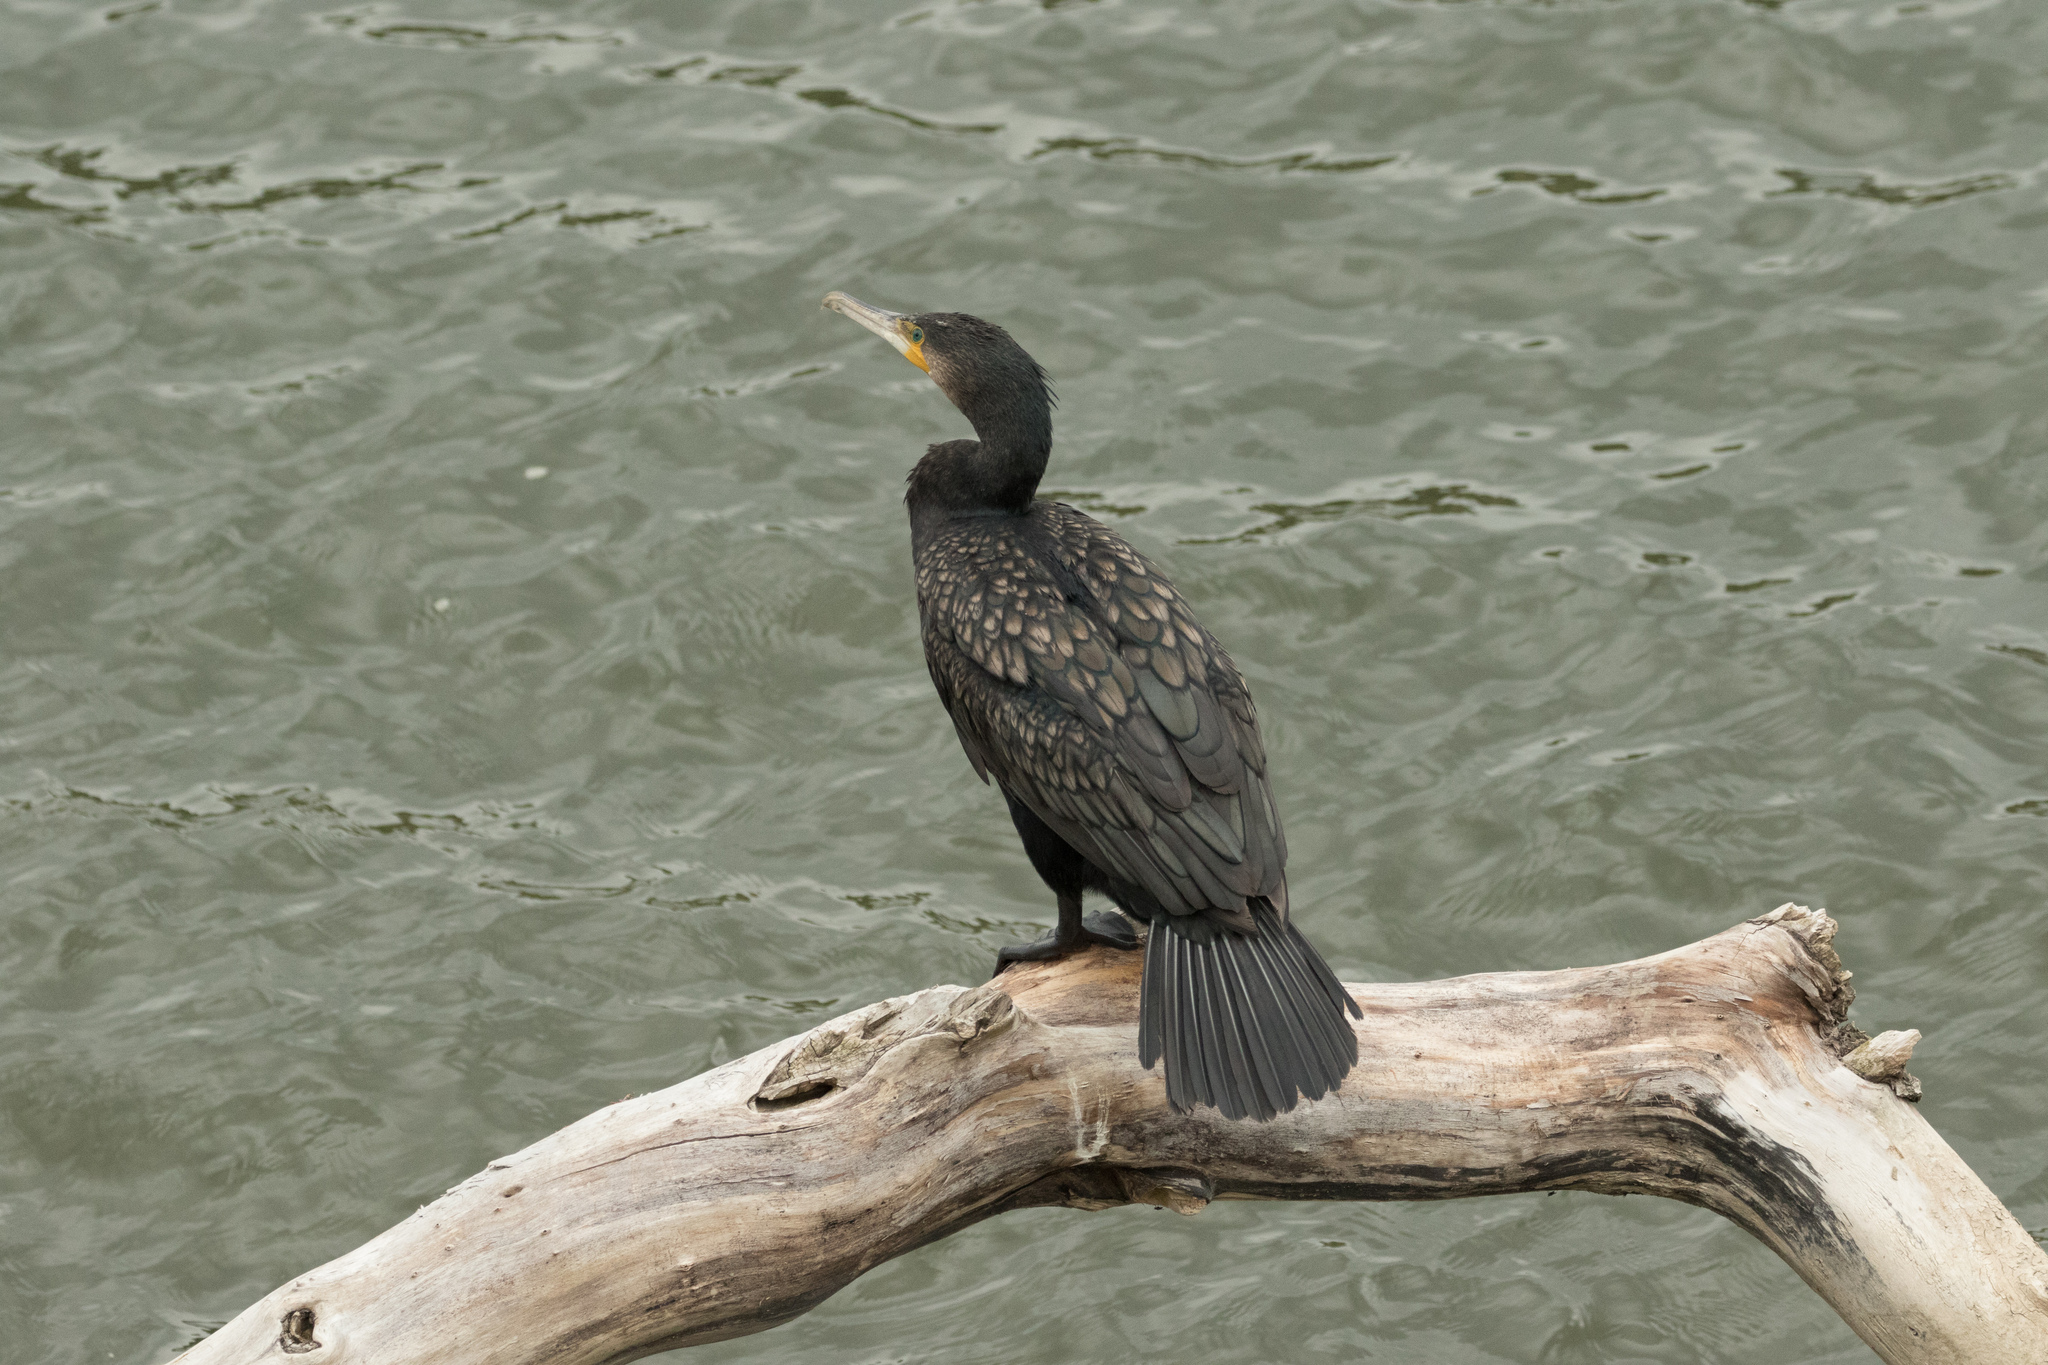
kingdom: Animalia
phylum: Chordata
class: Aves
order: Suliformes
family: Phalacrocoracidae
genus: Phalacrocorax
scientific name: Phalacrocorax carbo
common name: Great cormorant
